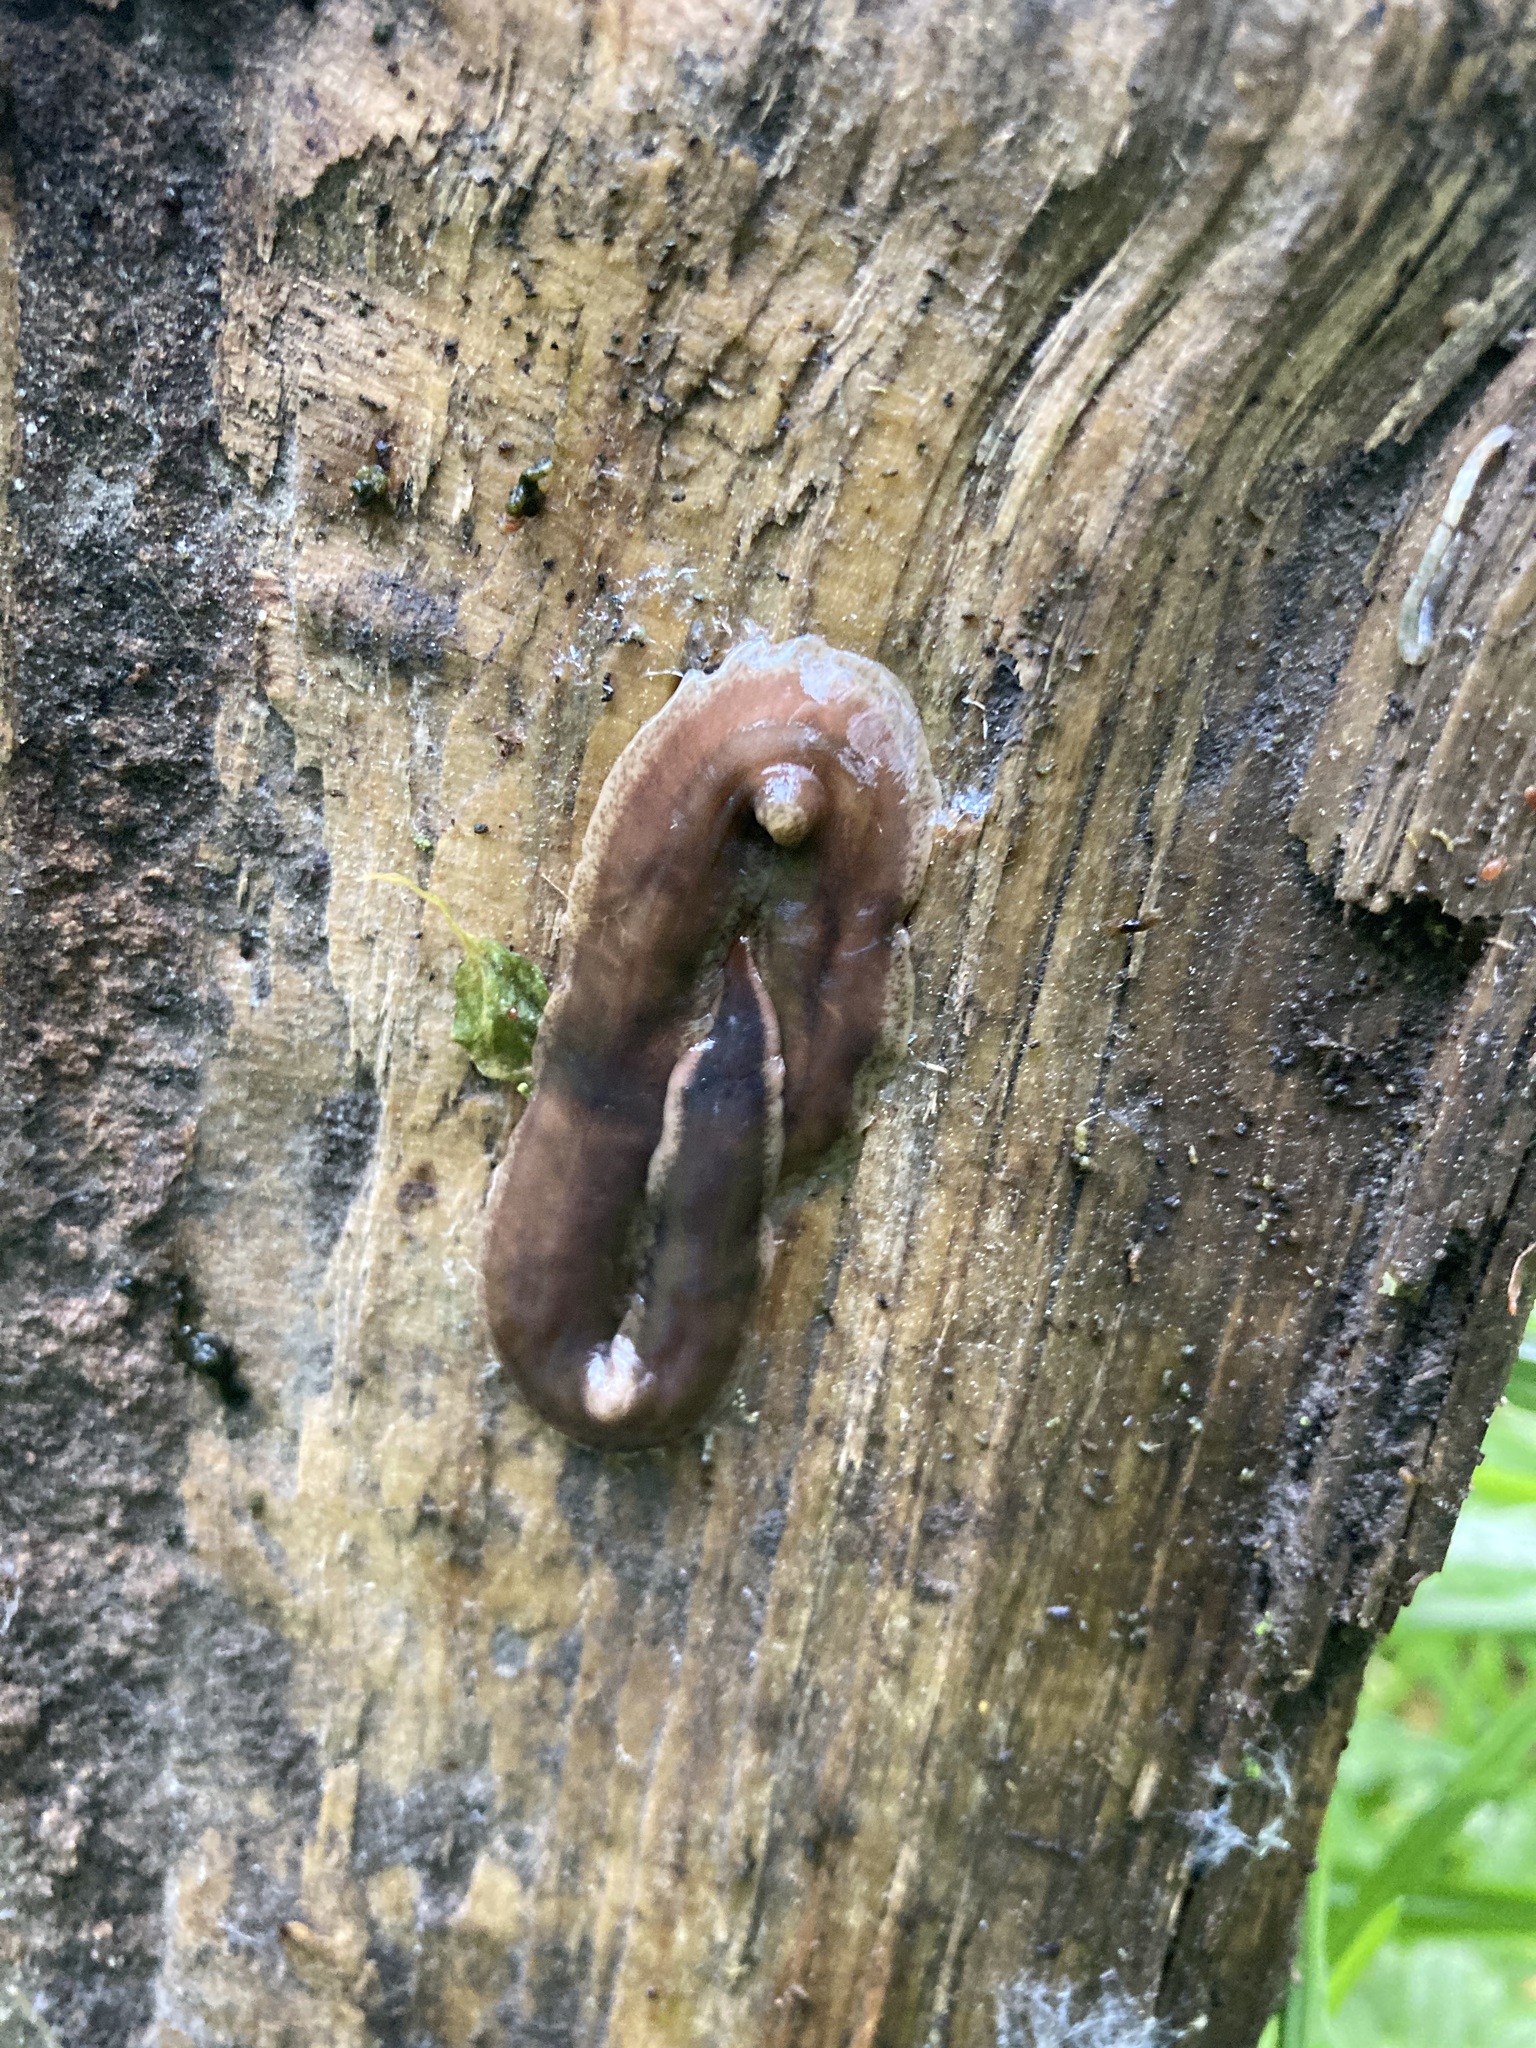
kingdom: Animalia
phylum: Platyhelminthes
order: Tricladida
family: Geoplanidae
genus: Arthurdendyus
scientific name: Arthurdendyus triangulatus
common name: New zealand flatworm
